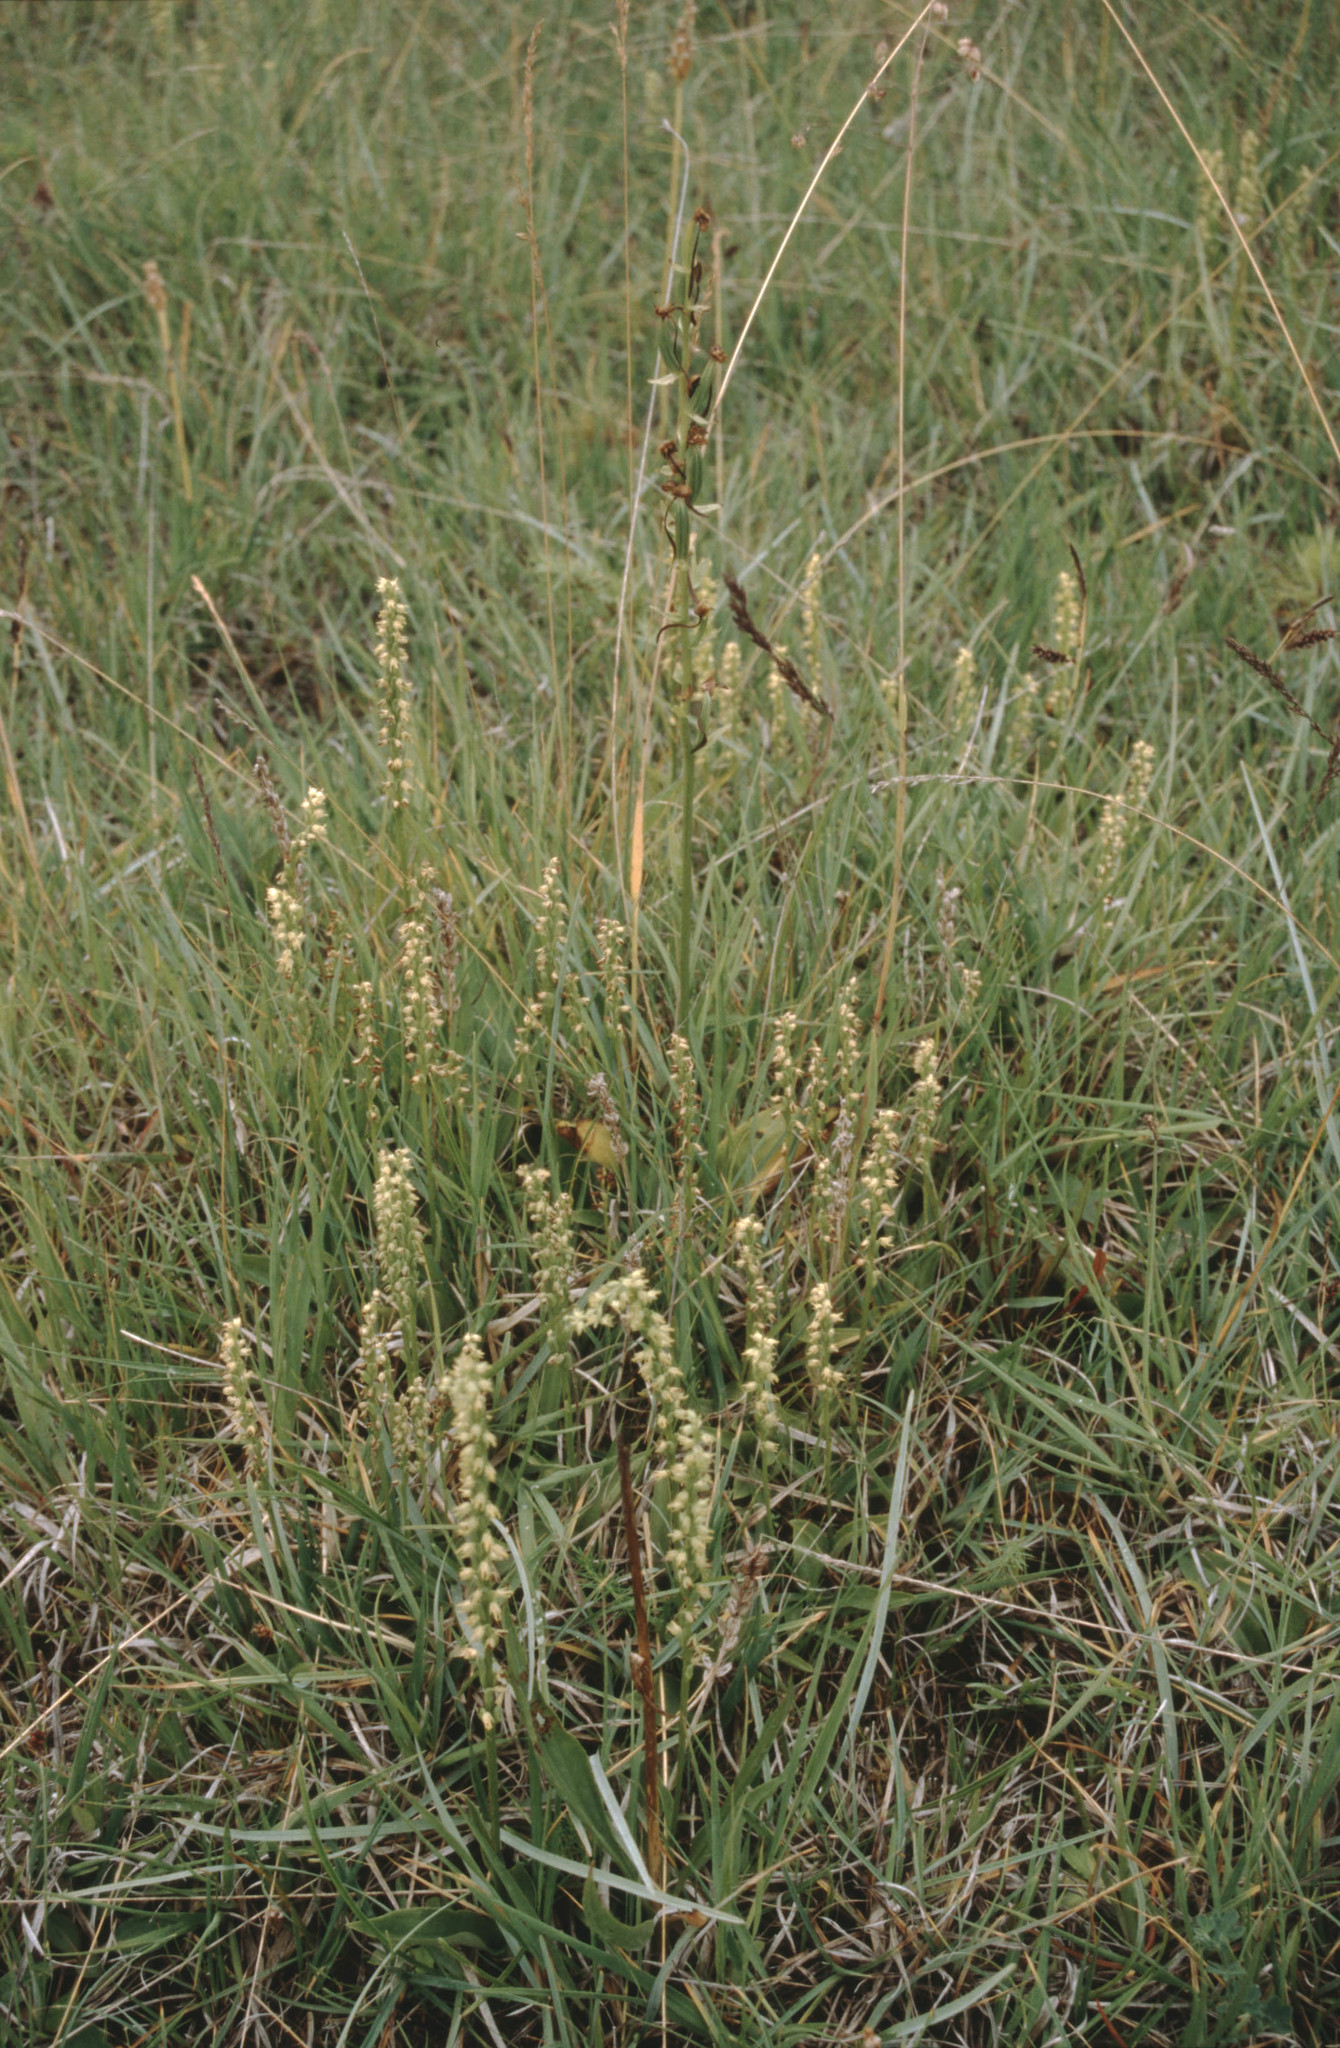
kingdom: Plantae
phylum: Tracheophyta
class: Liliopsida
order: Asparagales
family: Orchidaceae
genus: Herminium
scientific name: Herminium monorchis
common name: Musk orchid
